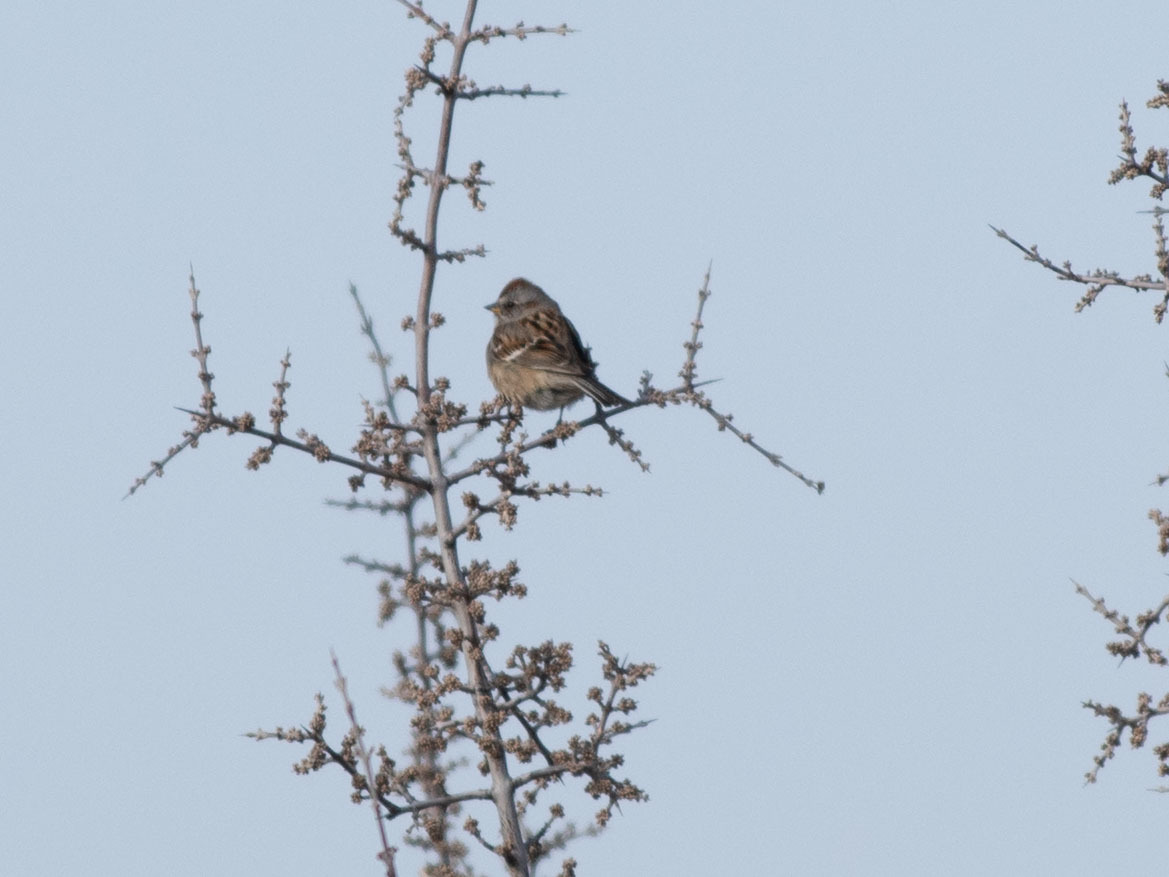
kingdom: Animalia
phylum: Chordata
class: Aves
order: Passeriformes
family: Passerellidae
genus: Spizelloides
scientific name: Spizelloides arborea
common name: American tree sparrow
